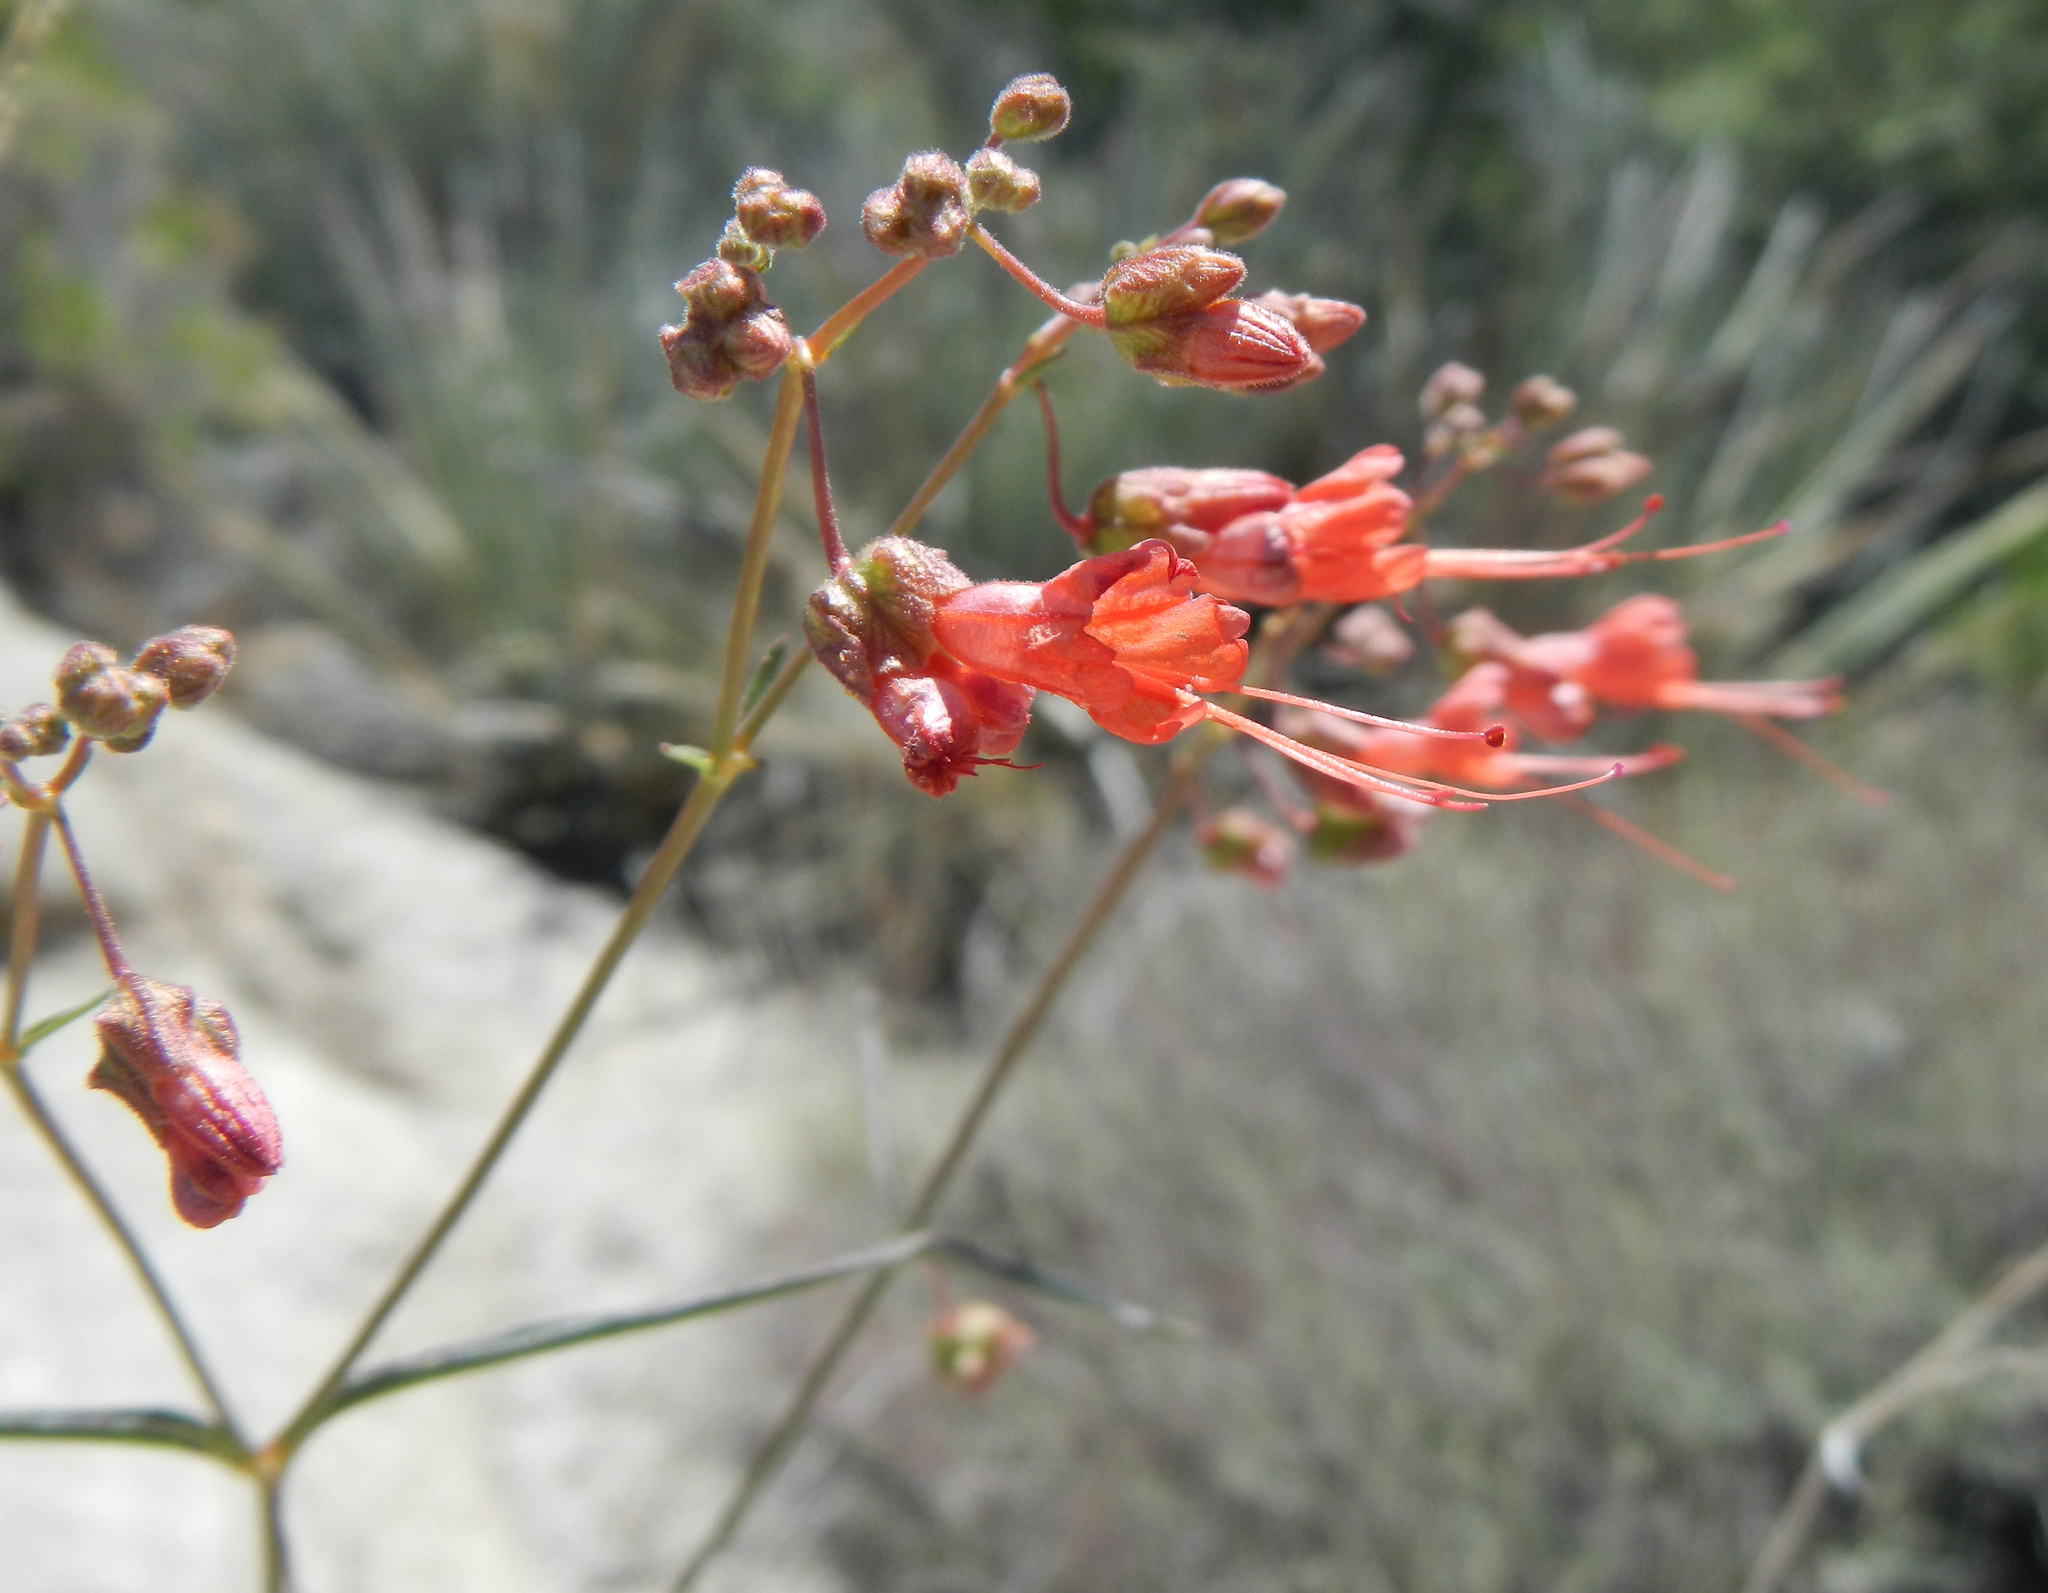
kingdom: Plantae
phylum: Tracheophyta
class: Magnoliopsida
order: Caryophyllales
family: Nyctaginaceae
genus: Mirabilis
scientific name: Mirabilis coccinea
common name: Scarlet four-o'clock
